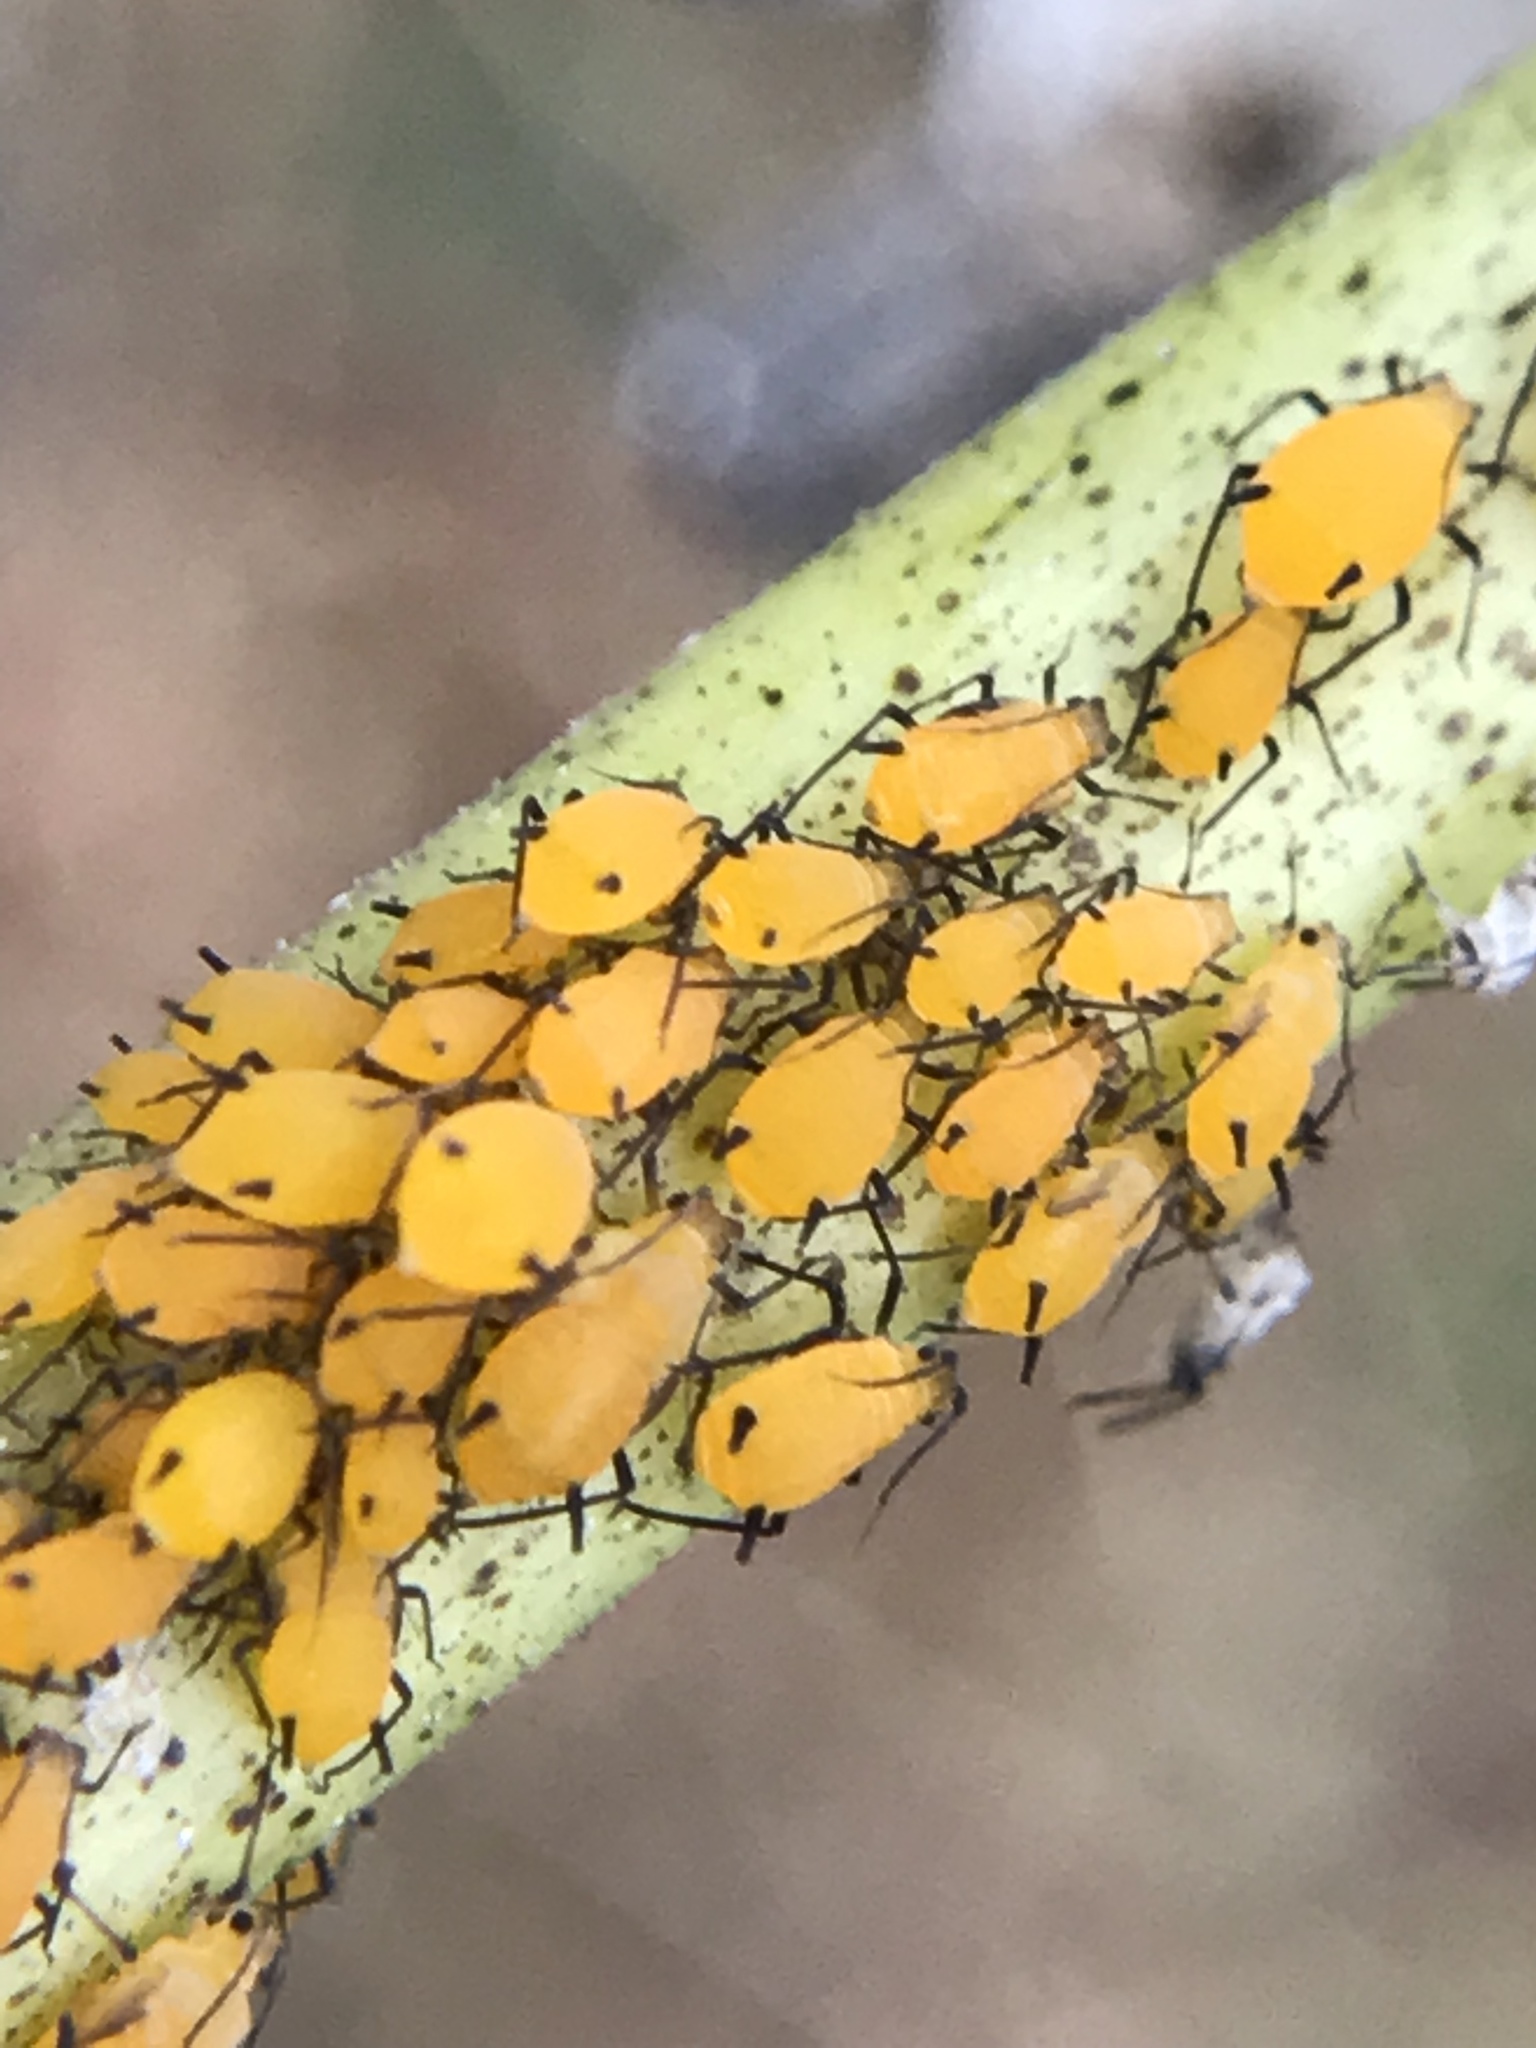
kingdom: Animalia
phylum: Arthropoda
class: Insecta
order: Hemiptera
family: Aphididae
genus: Aphis
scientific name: Aphis nerii
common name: Oleander aphid
